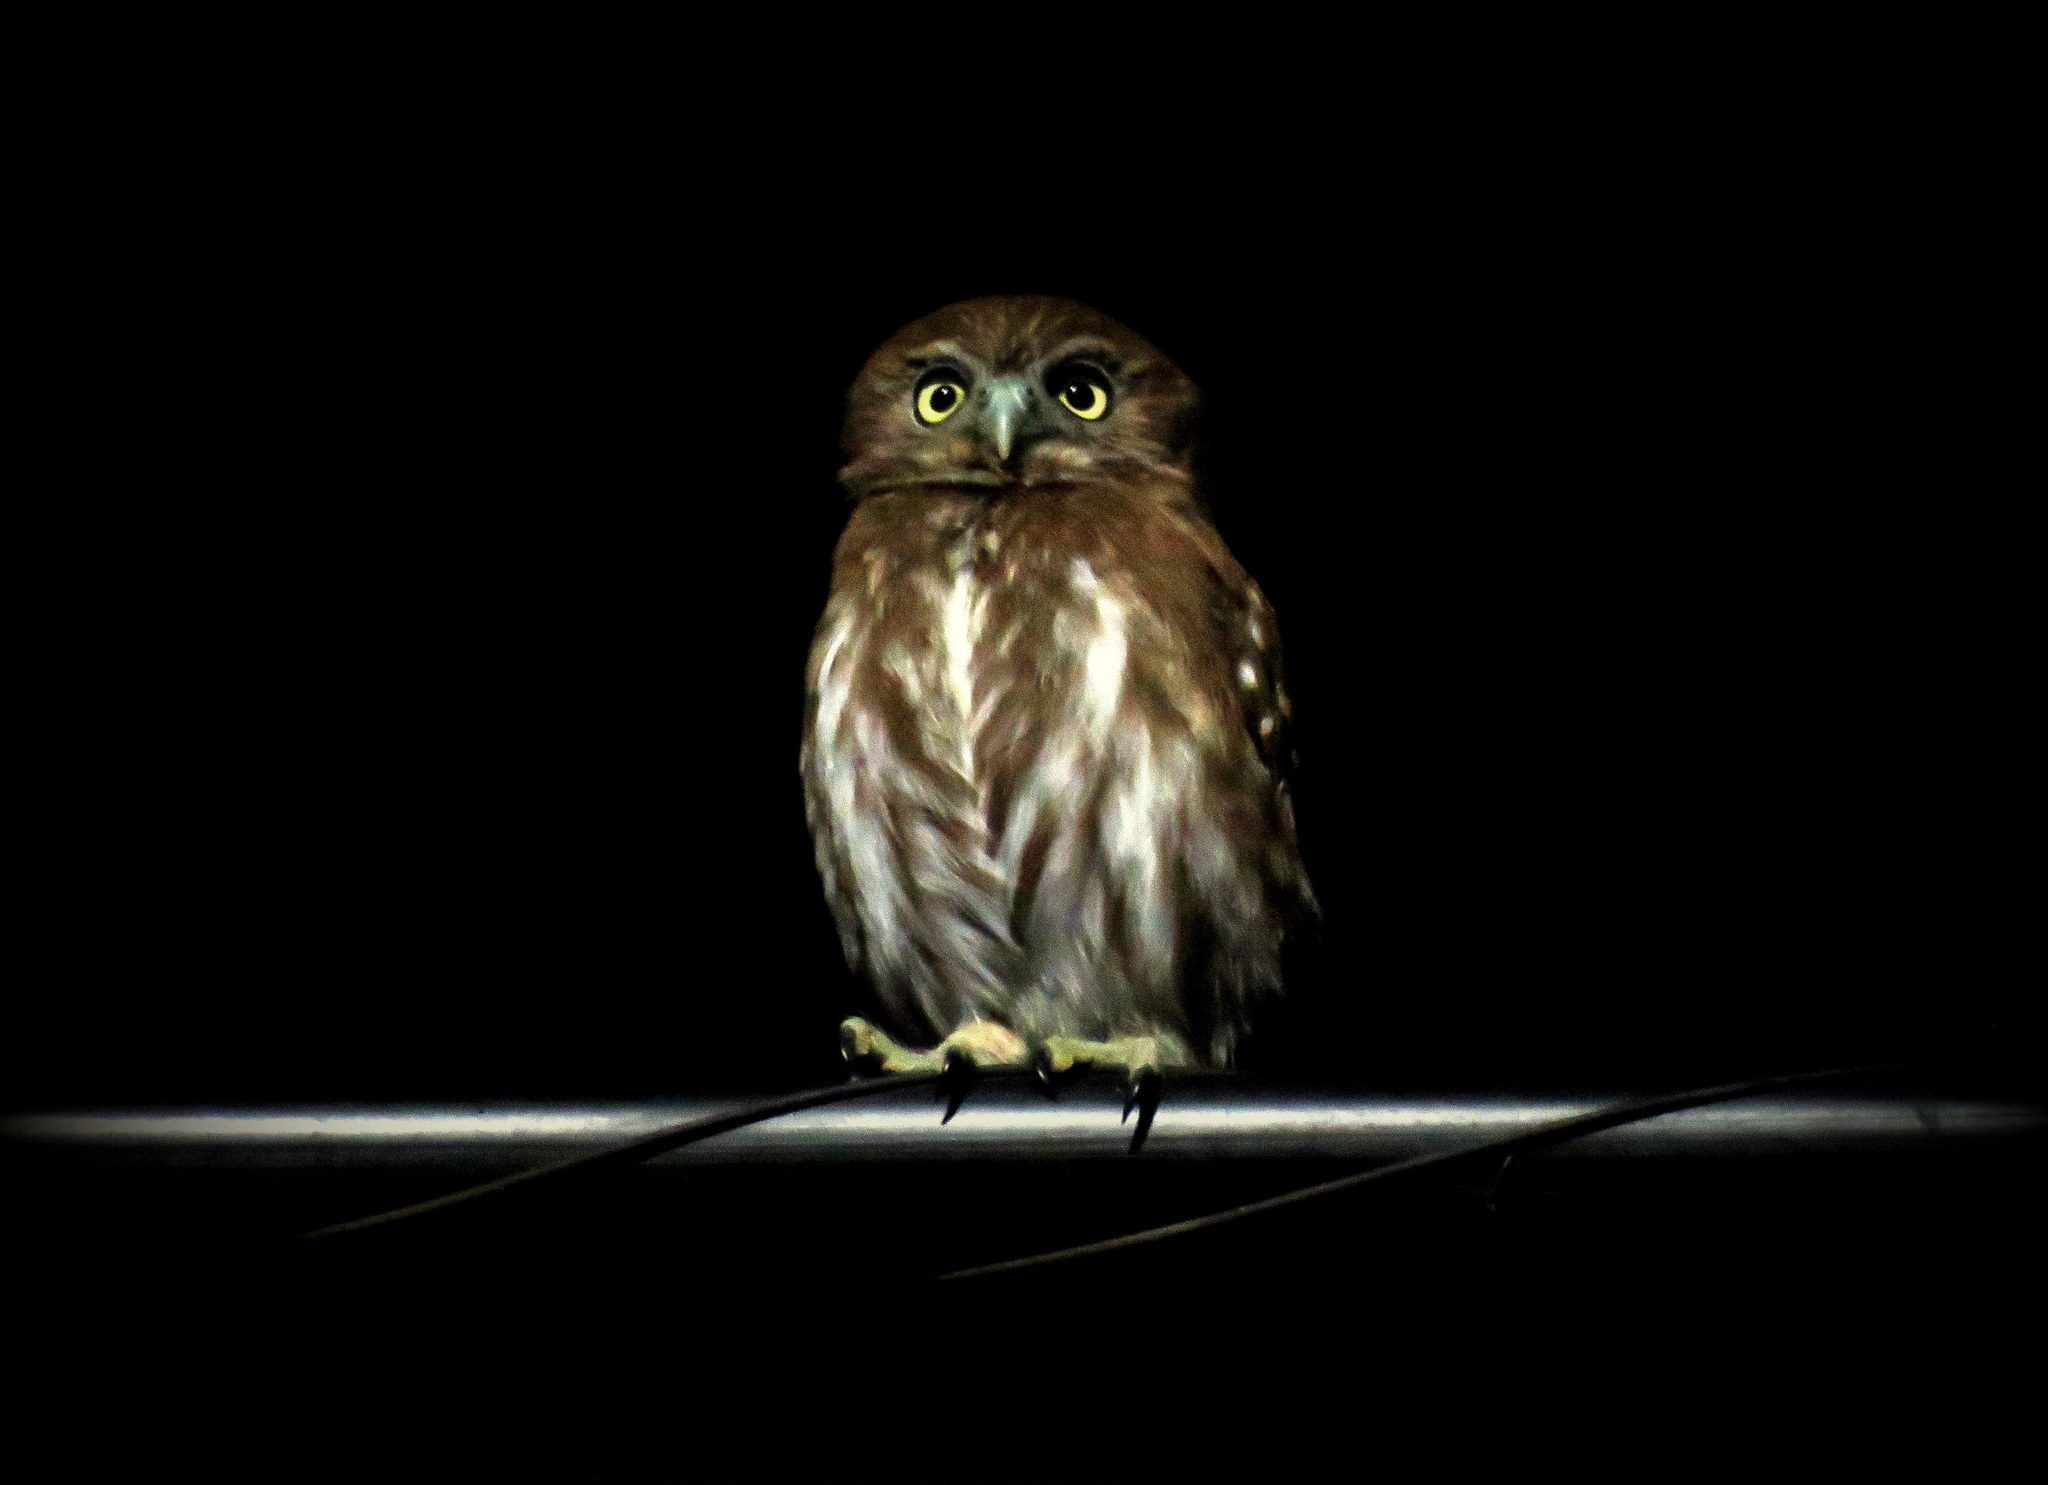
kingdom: Animalia
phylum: Chordata
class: Aves
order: Strigiformes
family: Strigidae
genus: Glaucidium
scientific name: Glaucidium brasilianum
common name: Ferruginous pygmy-owl
